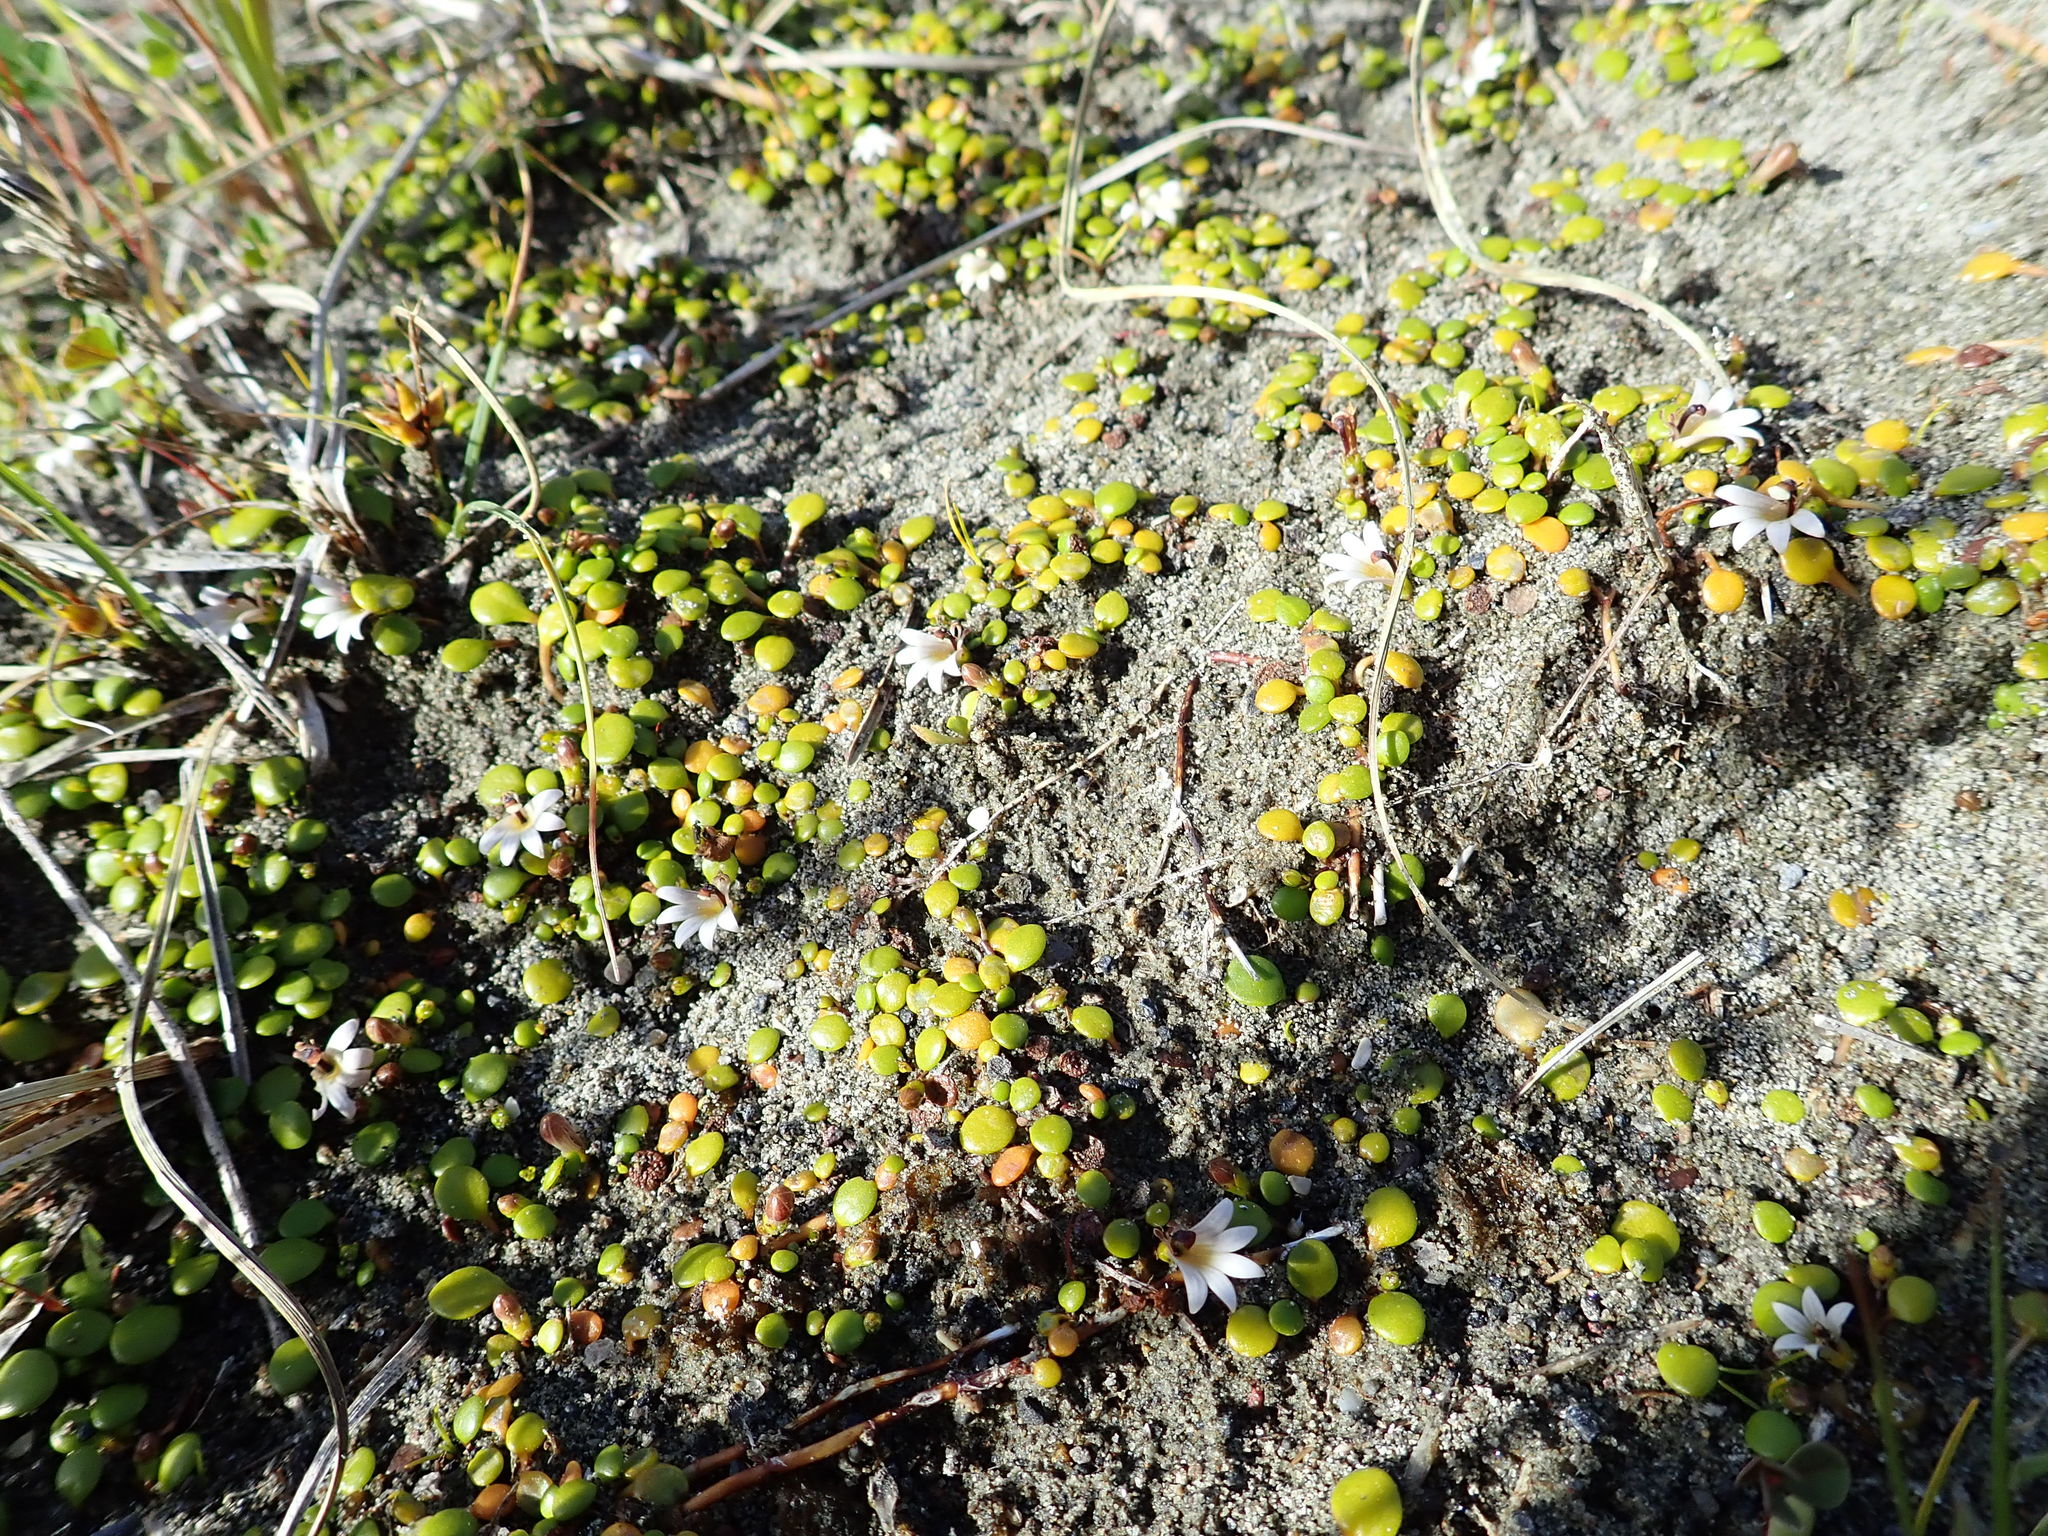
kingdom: Plantae
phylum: Tracheophyta
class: Magnoliopsida
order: Asterales
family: Goodeniaceae
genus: Goodenia
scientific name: Goodenia heenanii
